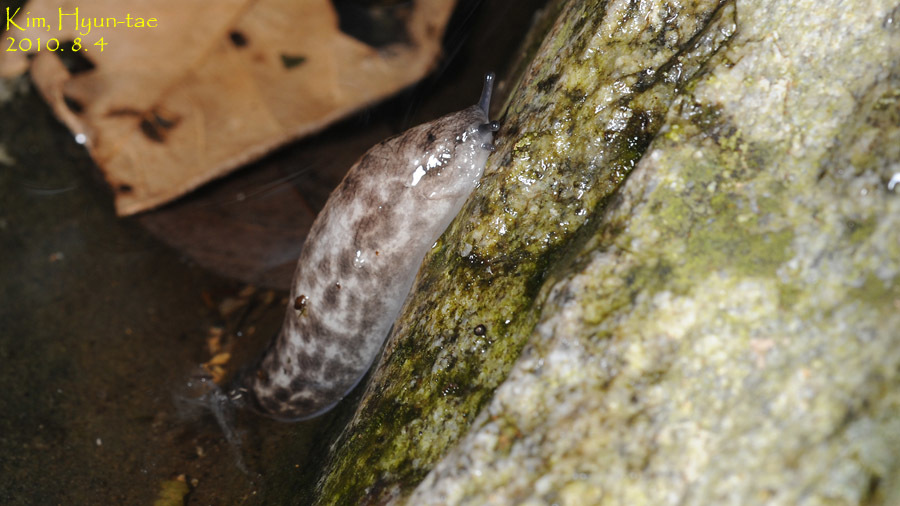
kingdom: Animalia
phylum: Mollusca
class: Gastropoda
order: Stylommatophora
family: Philomycidae
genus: Meghimatium
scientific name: Meghimatium fruhstorferi
